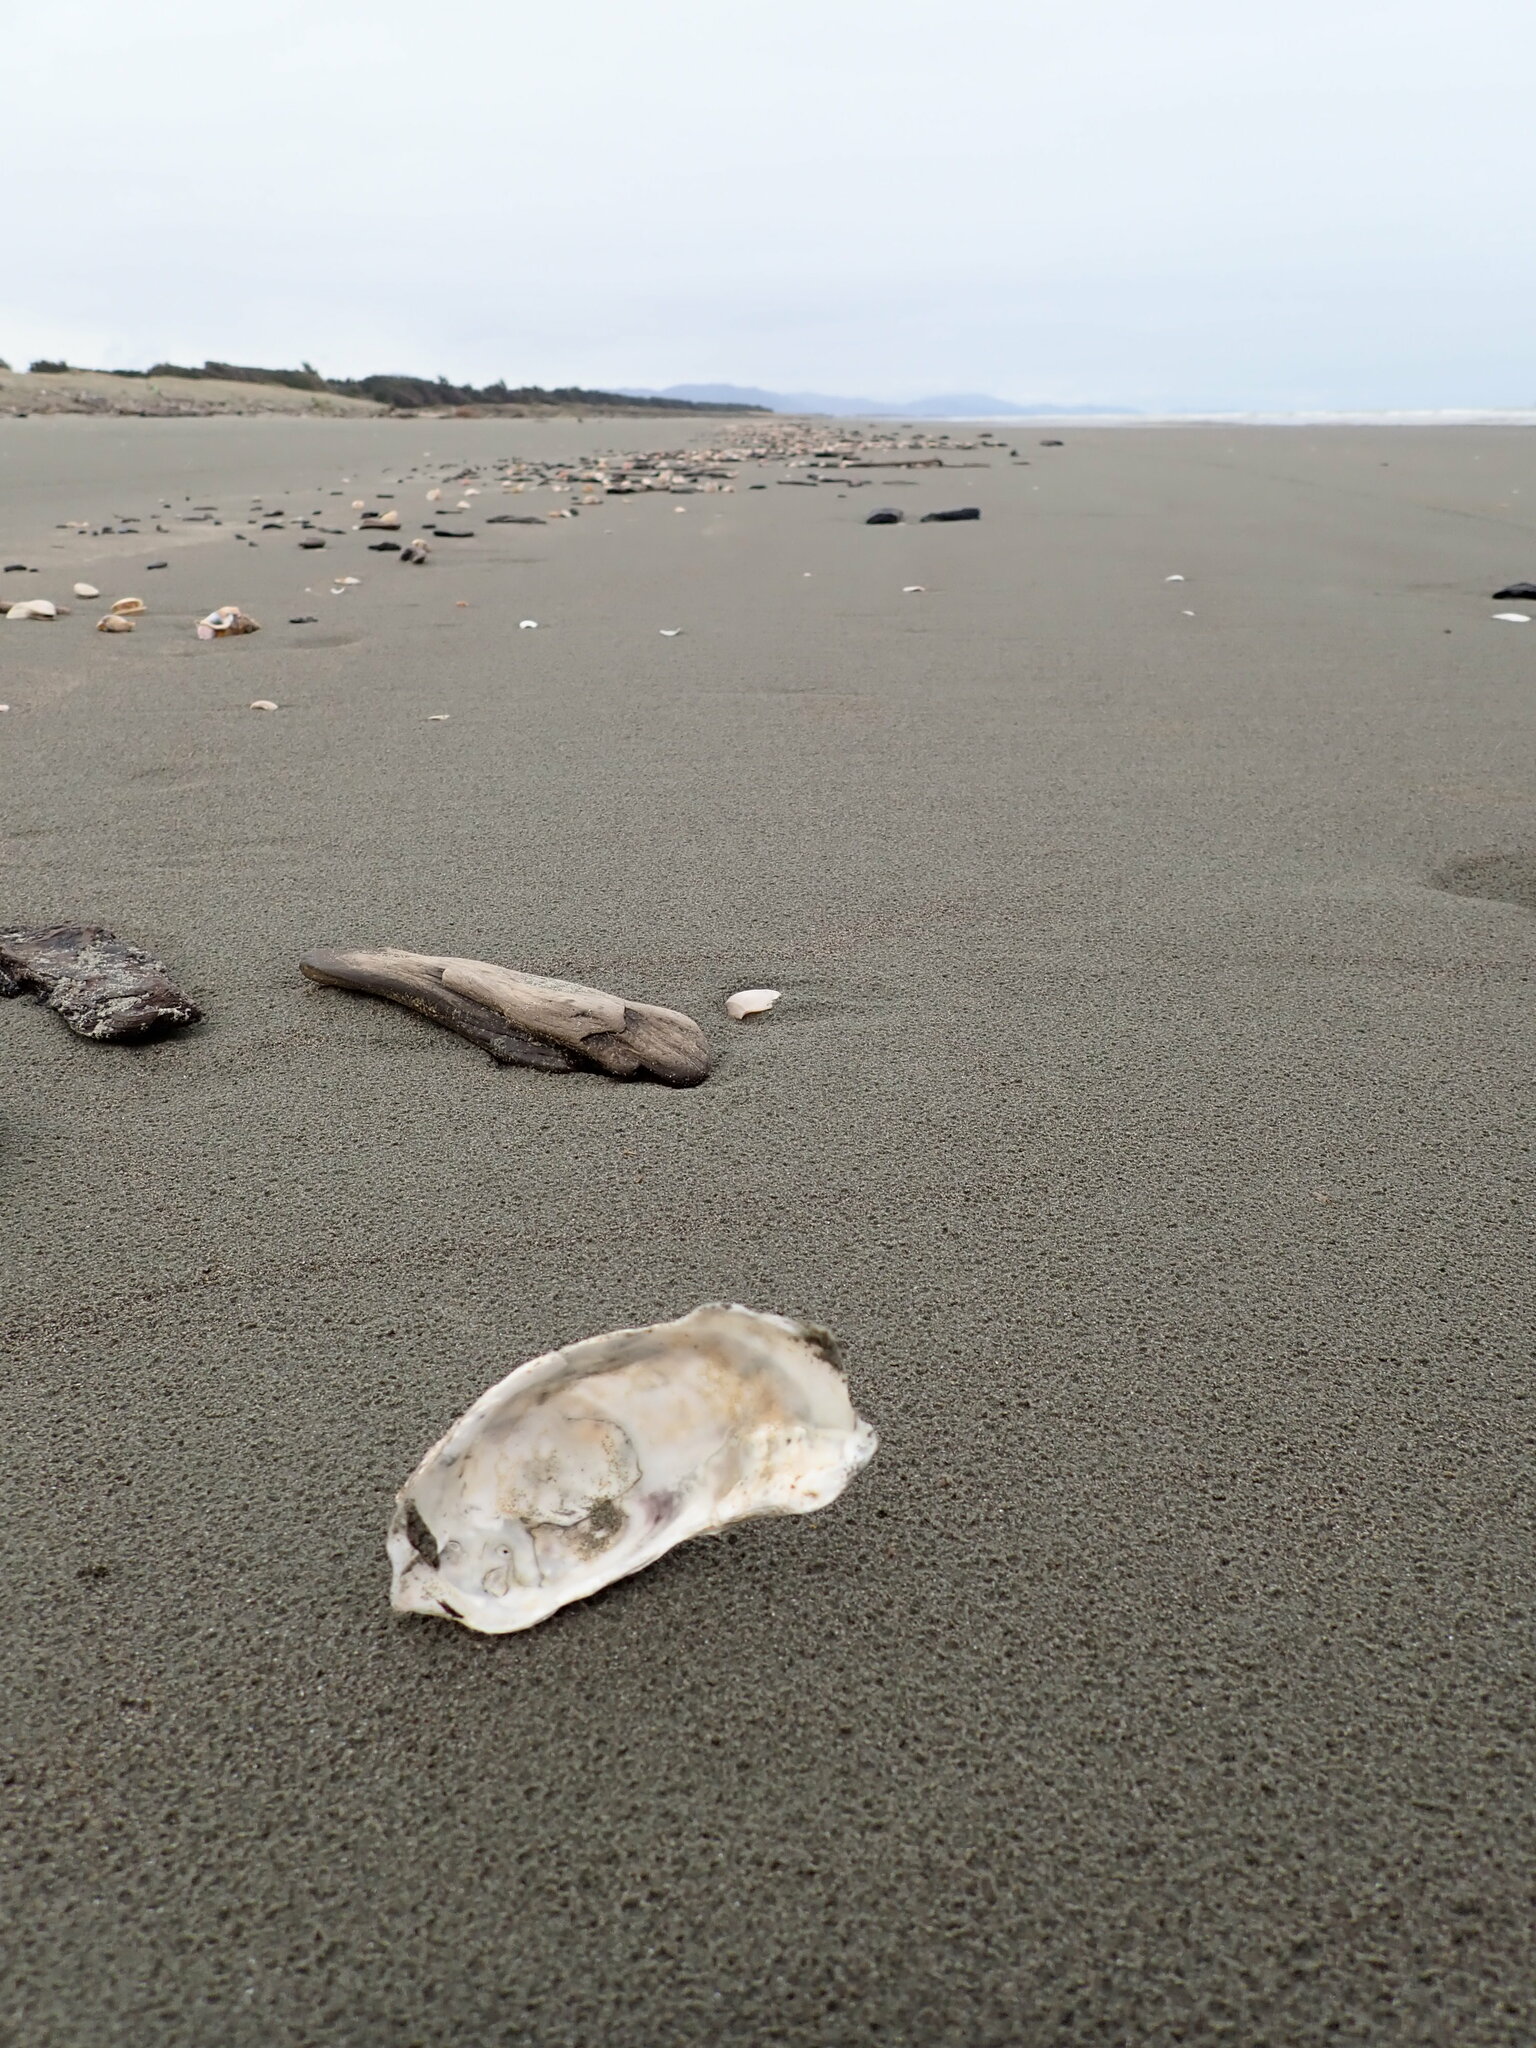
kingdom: Animalia
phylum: Mollusca
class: Bivalvia
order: Ostreida
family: Ostreidae
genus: Magallana
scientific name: Magallana gigas
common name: Pacific oyster
